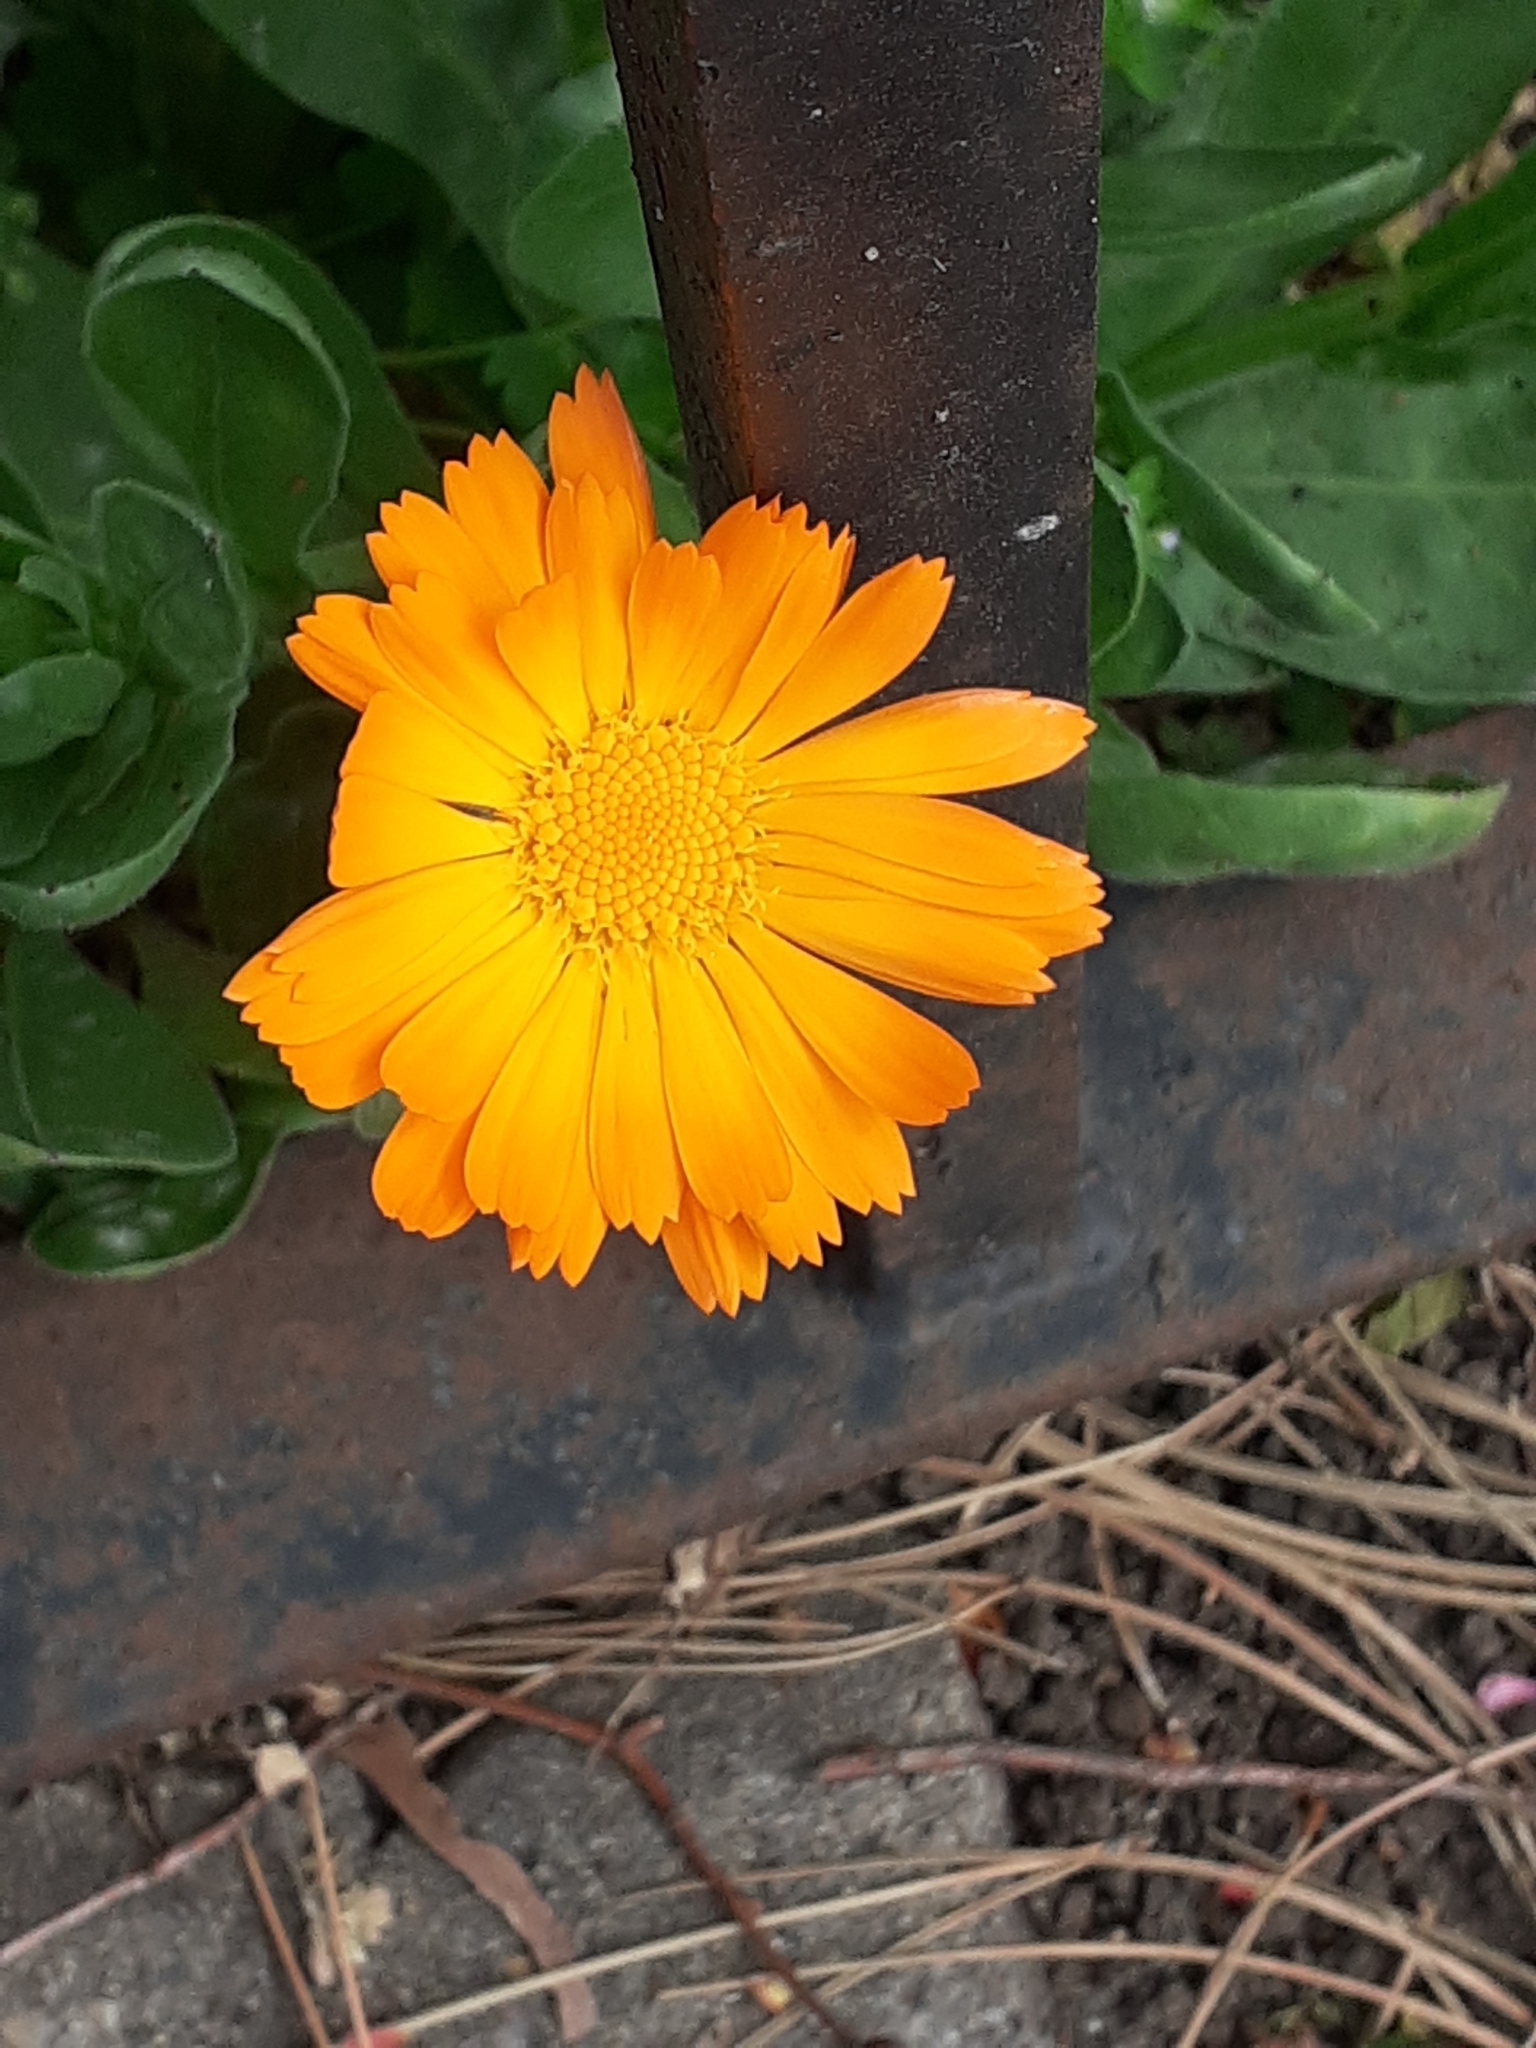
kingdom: Plantae
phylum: Tracheophyta
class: Magnoliopsida
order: Asterales
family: Asteraceae
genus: Calendula
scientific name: Calendula officinalis
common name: Pot marigold
